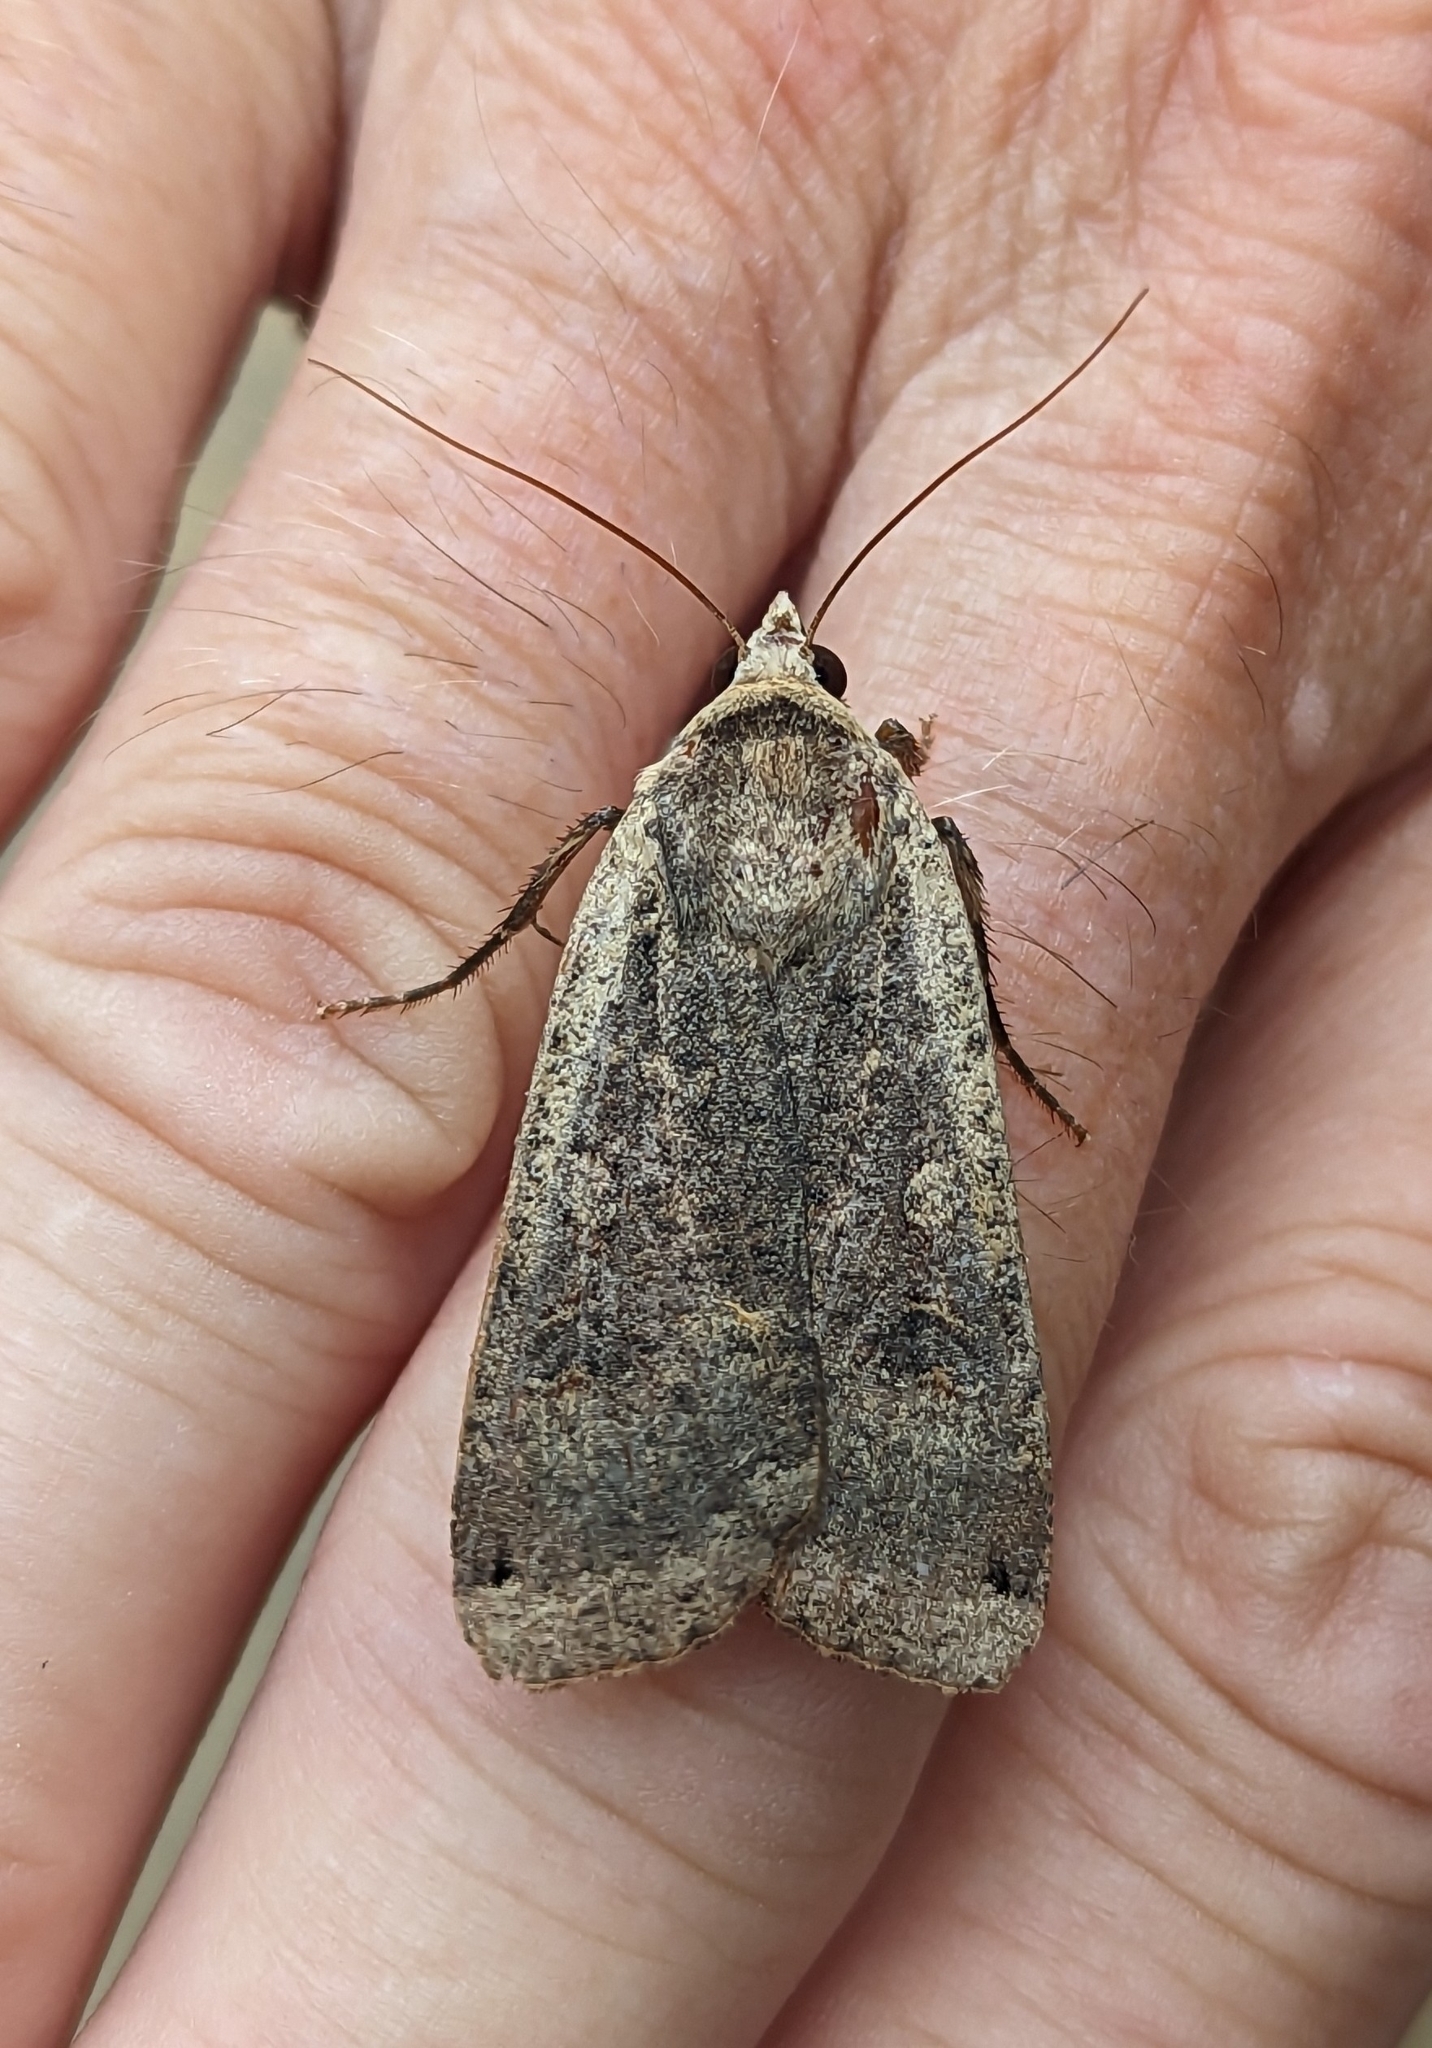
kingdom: Animalia
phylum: Arthropoda
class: Insecta
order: Lepidoptera
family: Noctuidae
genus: Noctua
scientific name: Noctua pronuba
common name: Large yellow underwing
